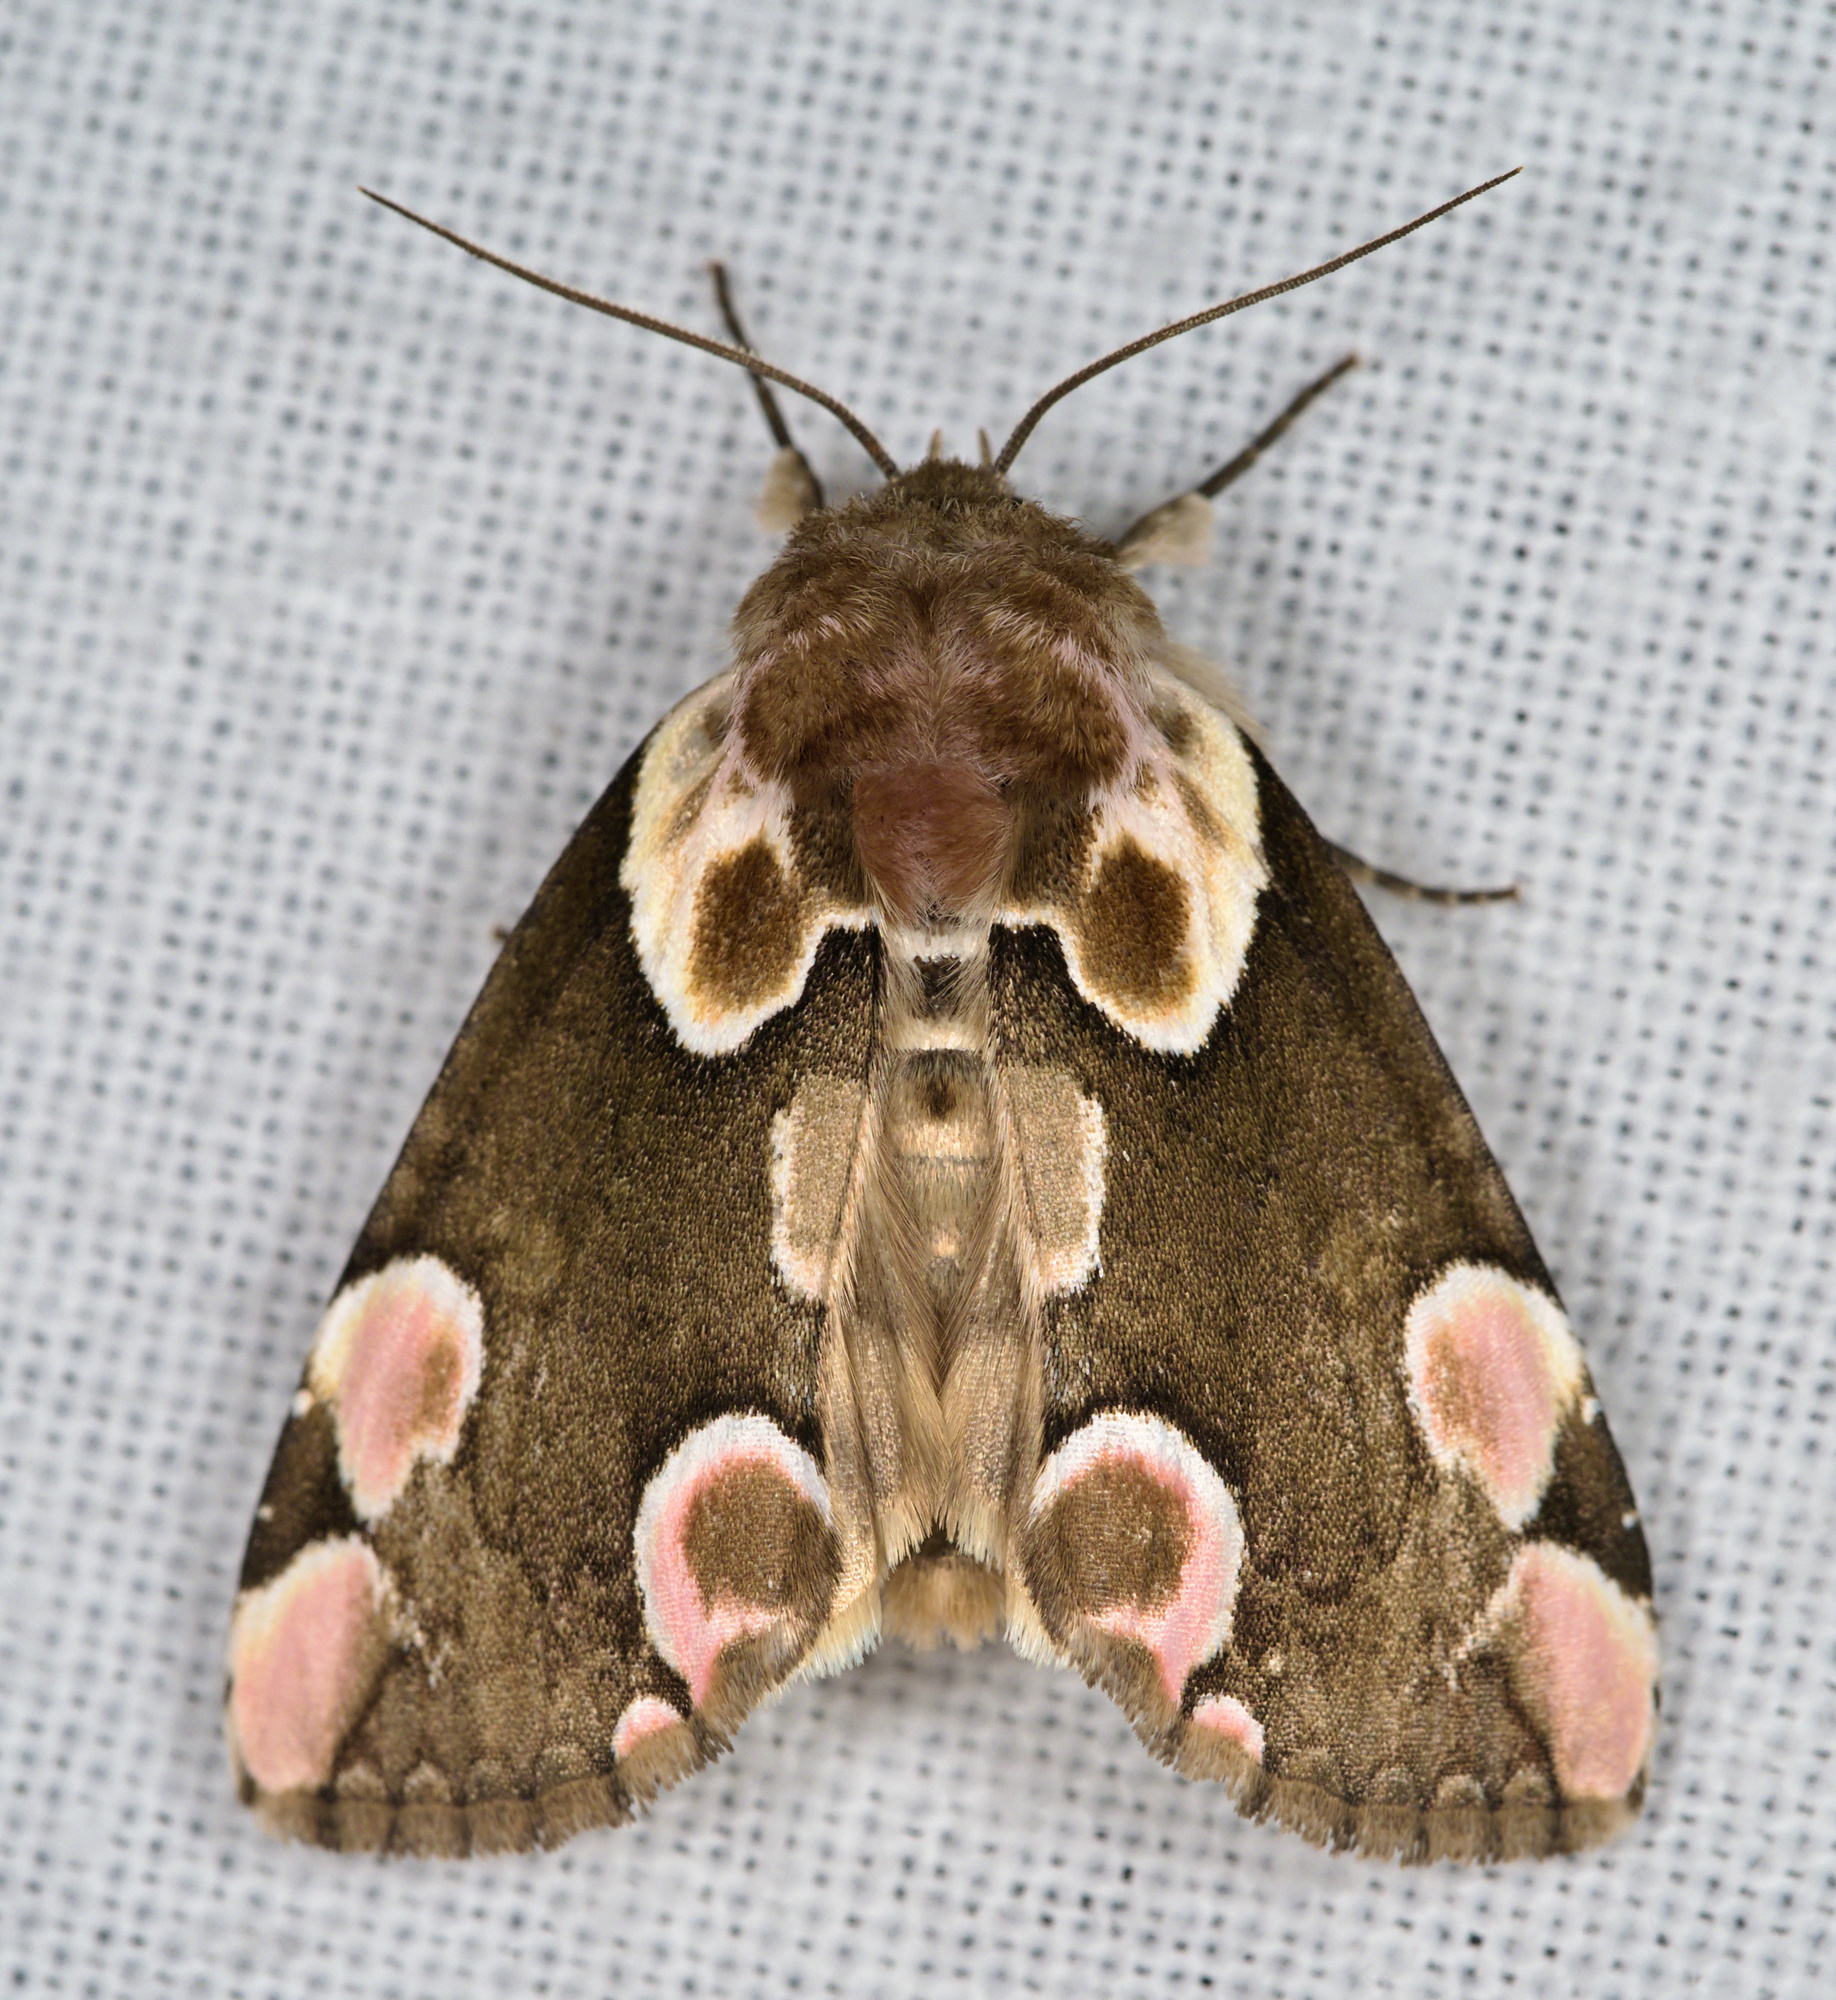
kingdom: Animalia
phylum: Arthropoda
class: Insecta
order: Lepidoptera
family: Drepanidae
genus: Thyatira
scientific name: Thyatira batis
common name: Peach blossom
